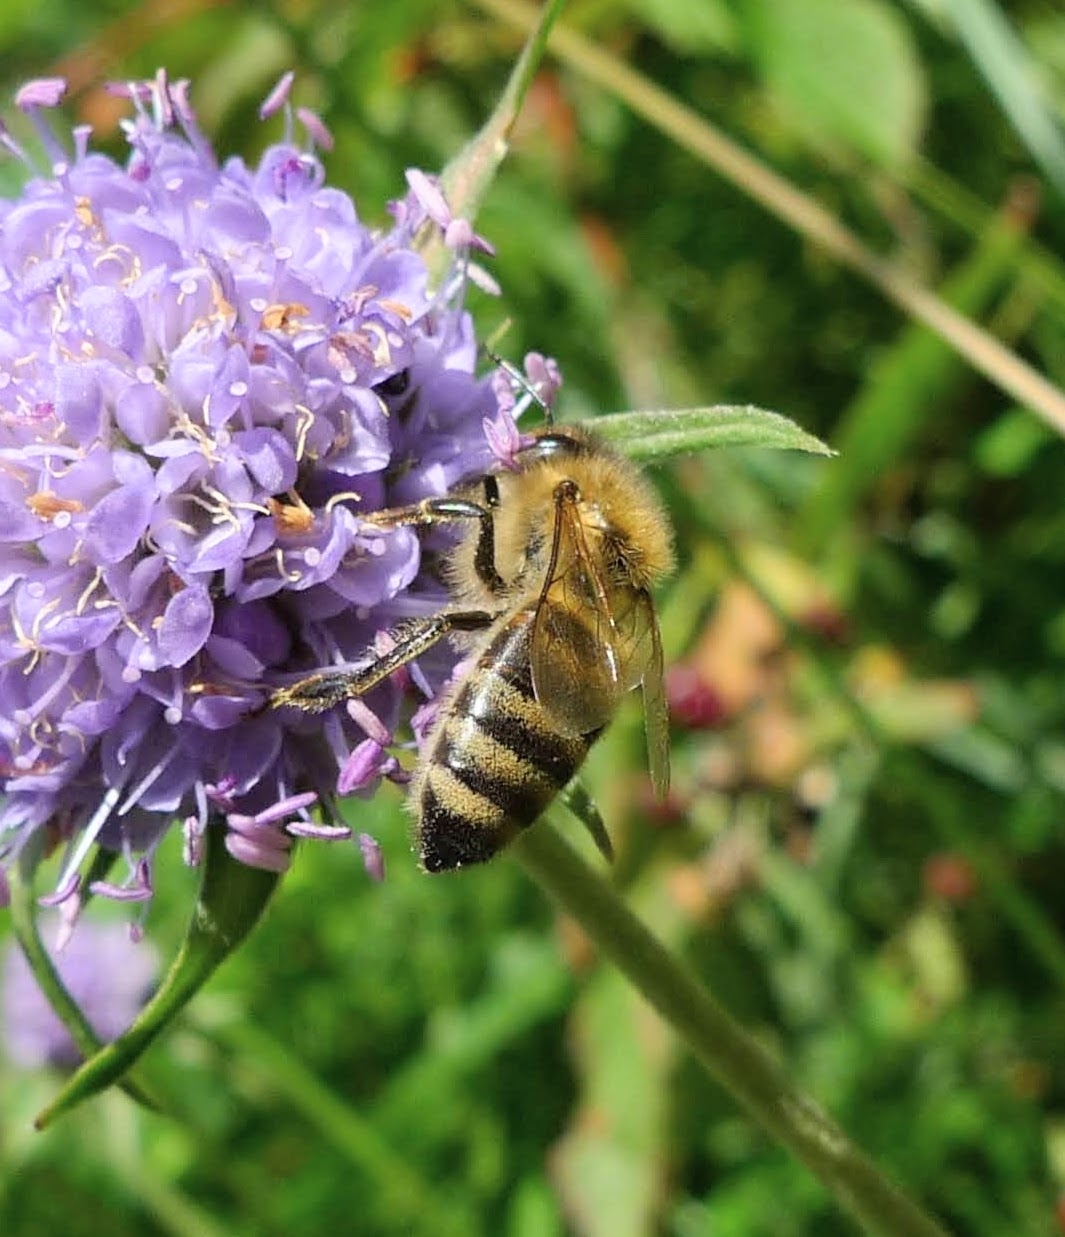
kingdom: Animalia
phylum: Arthropoda
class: Insecta
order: Hymenoptera
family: Apidae
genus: Apis
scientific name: Apis mellifera
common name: Honey bee
